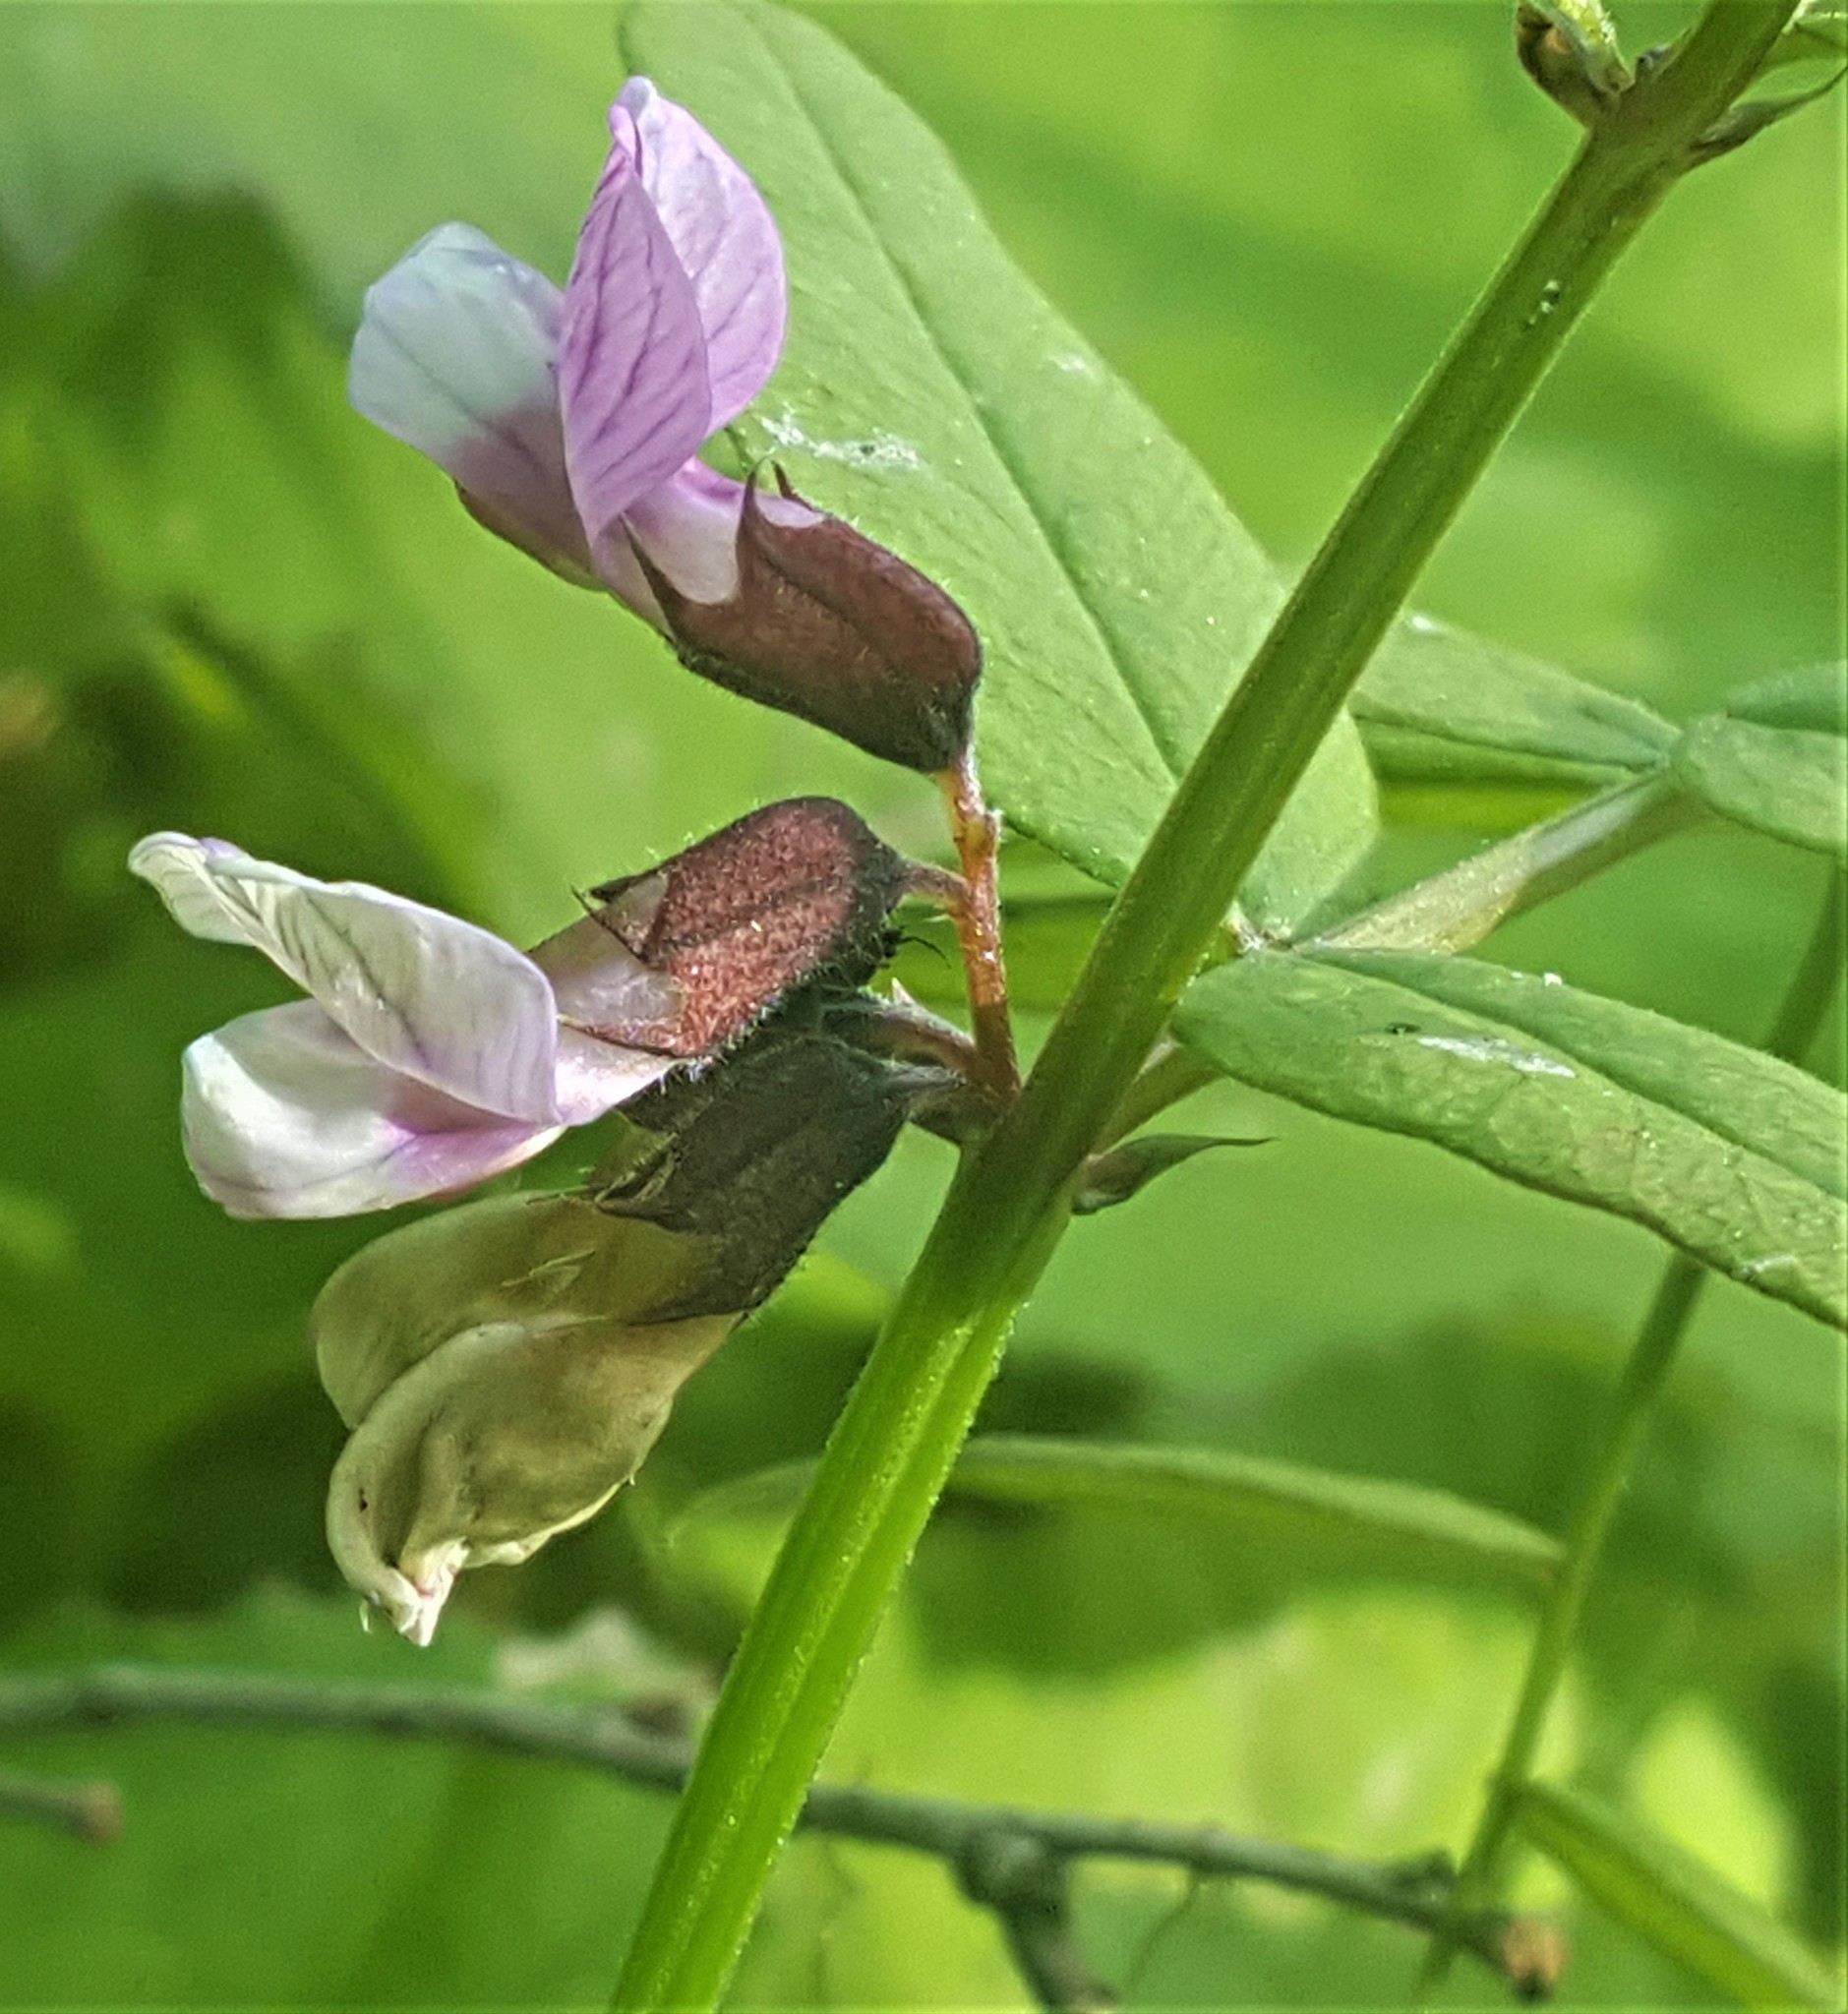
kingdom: Plantae
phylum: Tracheophyta
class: Magnoliopsida
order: Fabales
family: Fabaceae
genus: Vicia
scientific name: Vicia sepium
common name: Bush vetch
